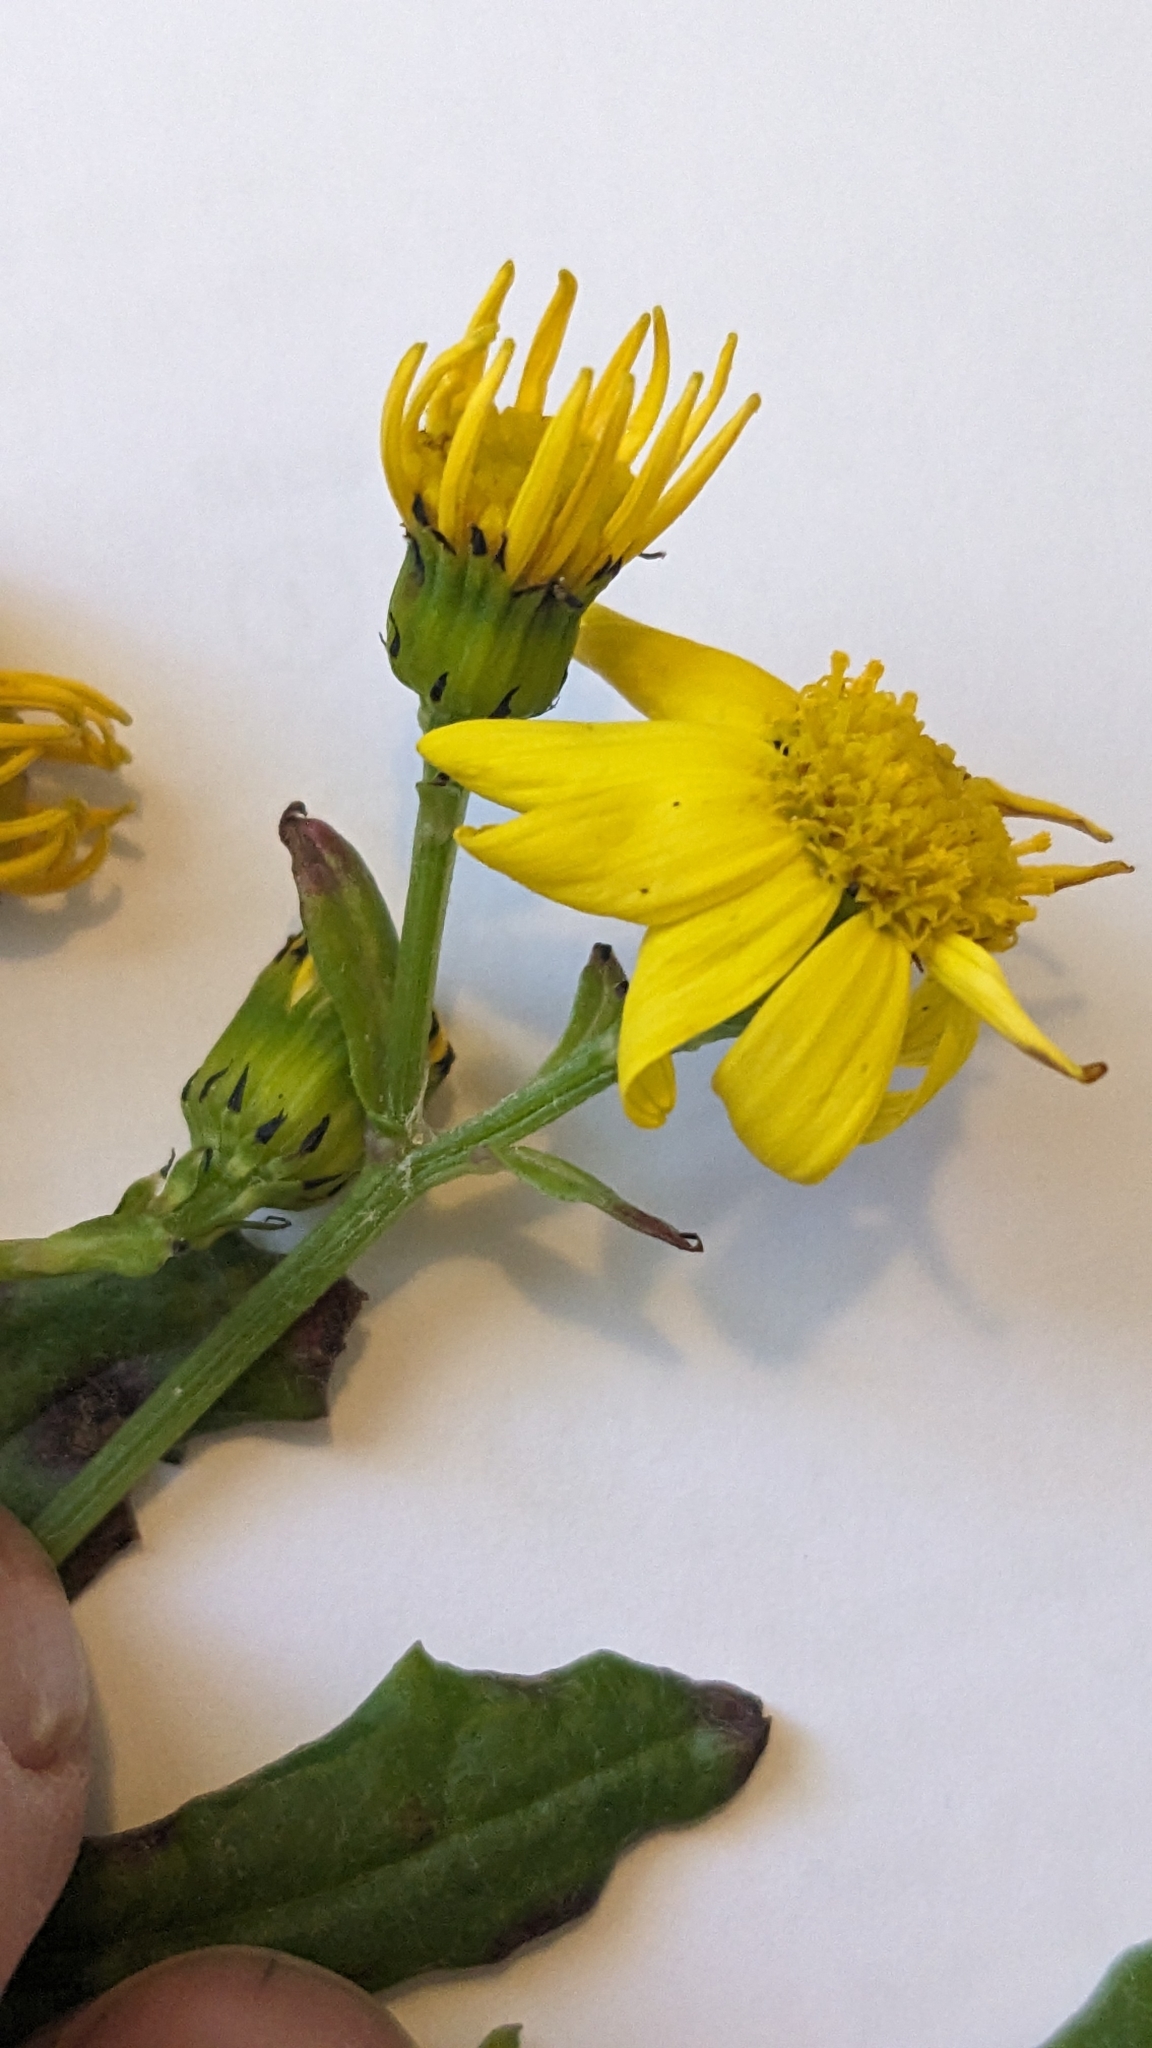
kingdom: Plantae
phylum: Tracheophyta
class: Magnoliopsida
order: Asterales
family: Asteraceae
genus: Senecio
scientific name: Senecio squalidus
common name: Oxford ragwort
